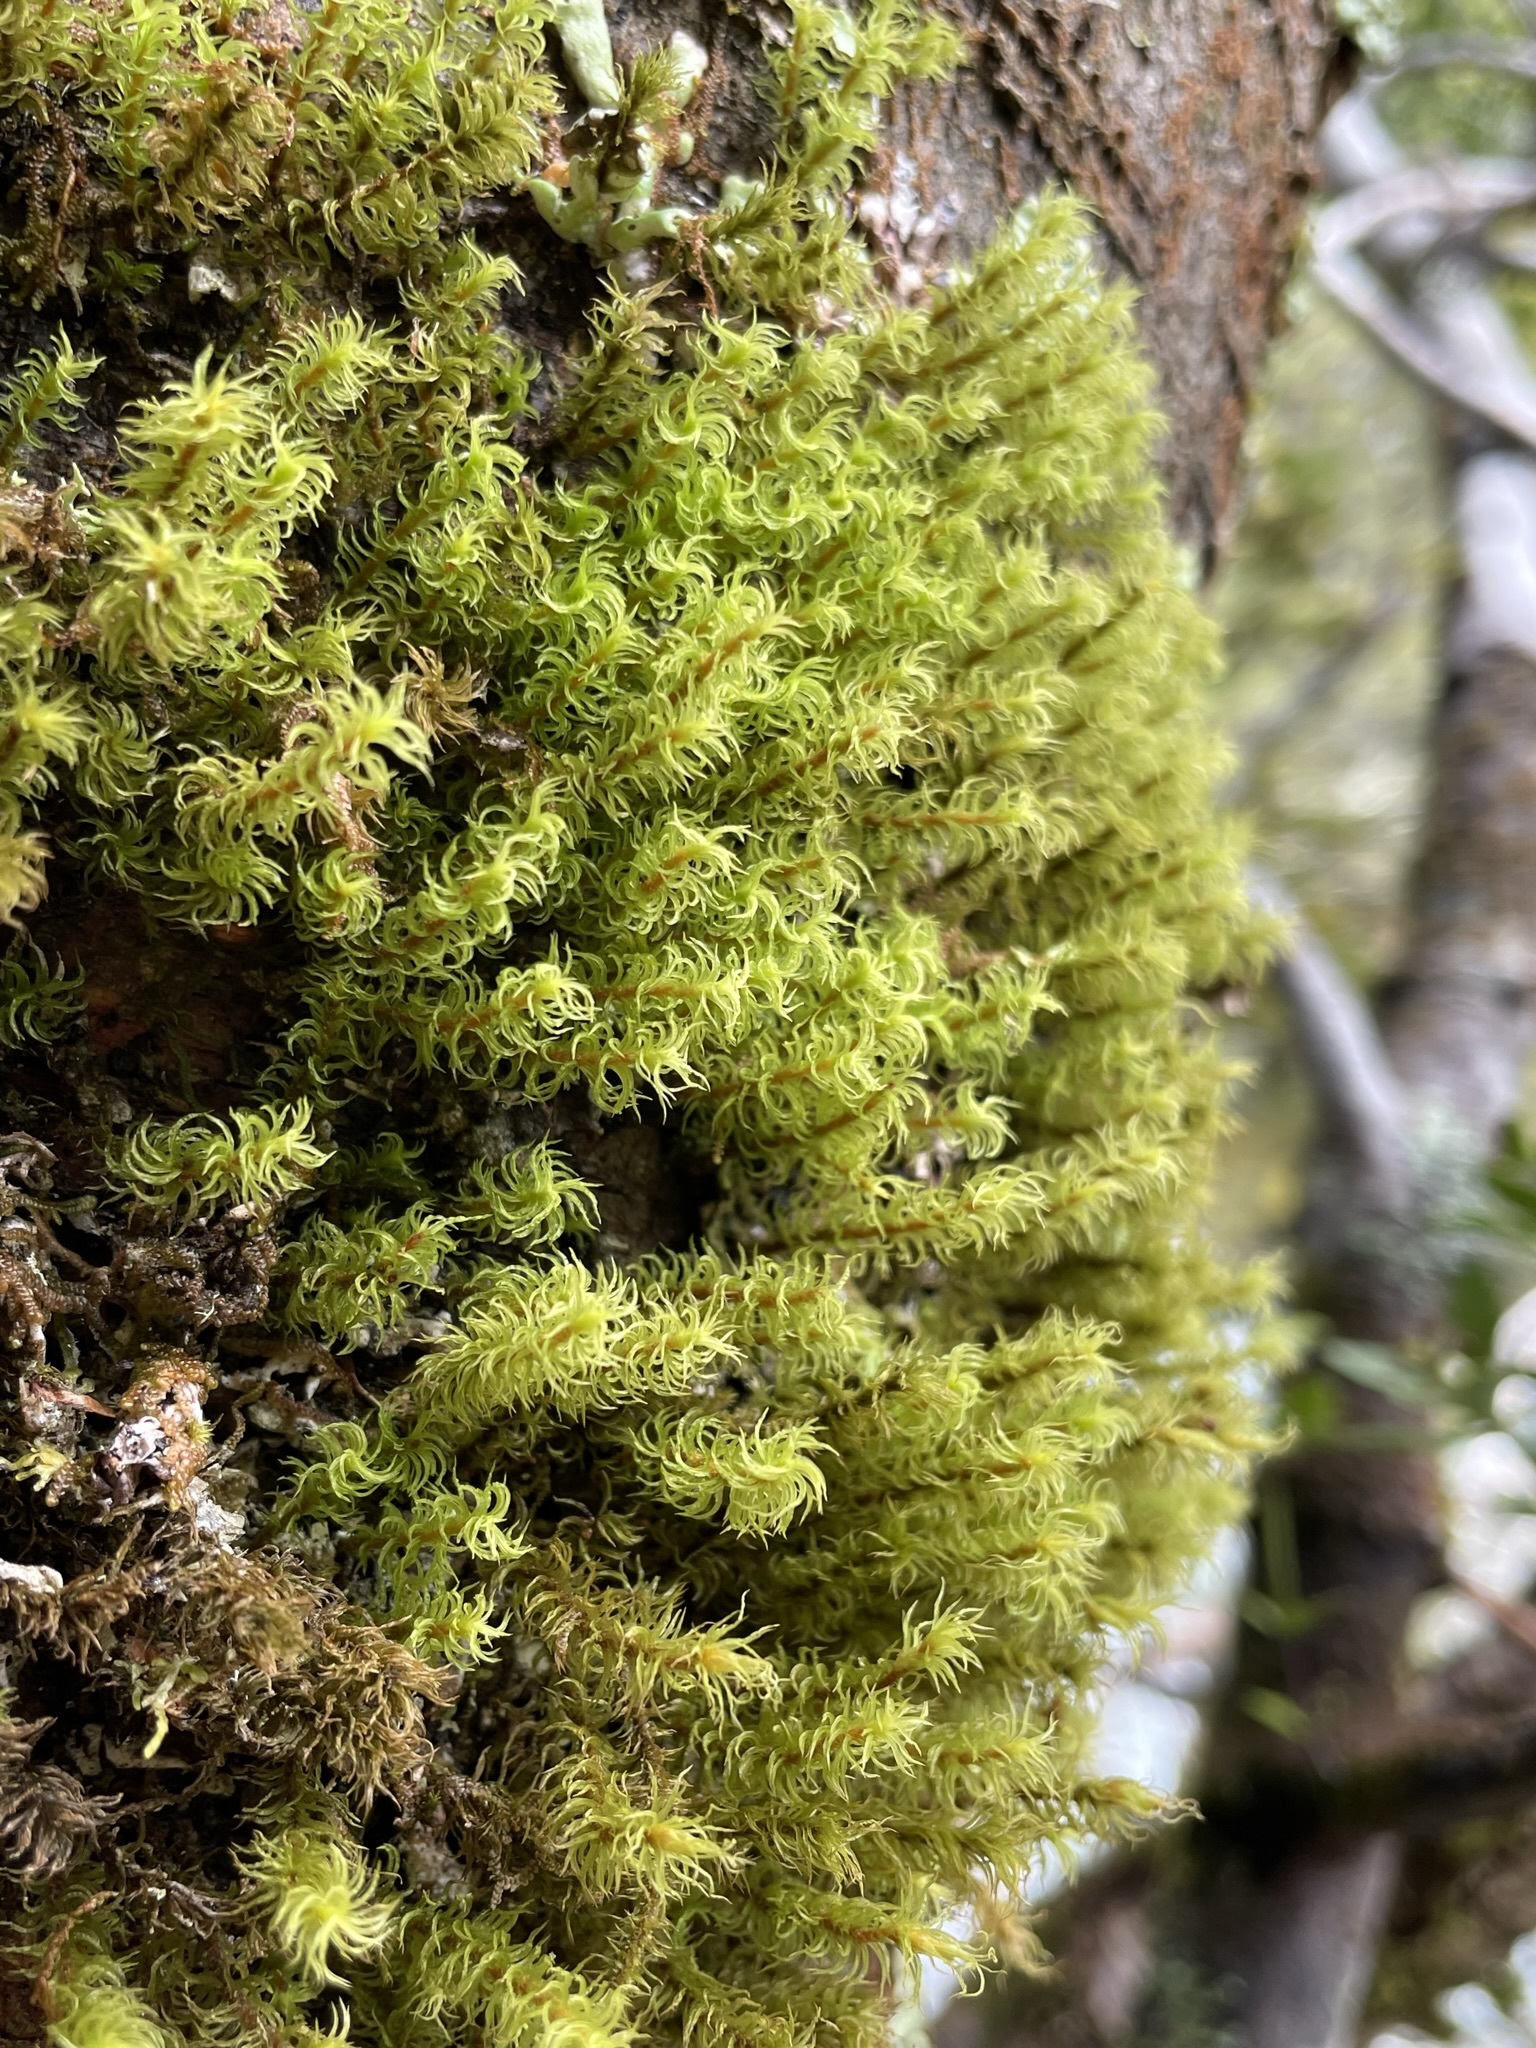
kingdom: Plantae
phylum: Bryophyta
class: Bryopsida
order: Dicranales
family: Dicranaceae
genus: Mesotus
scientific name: Mesotus celatus
